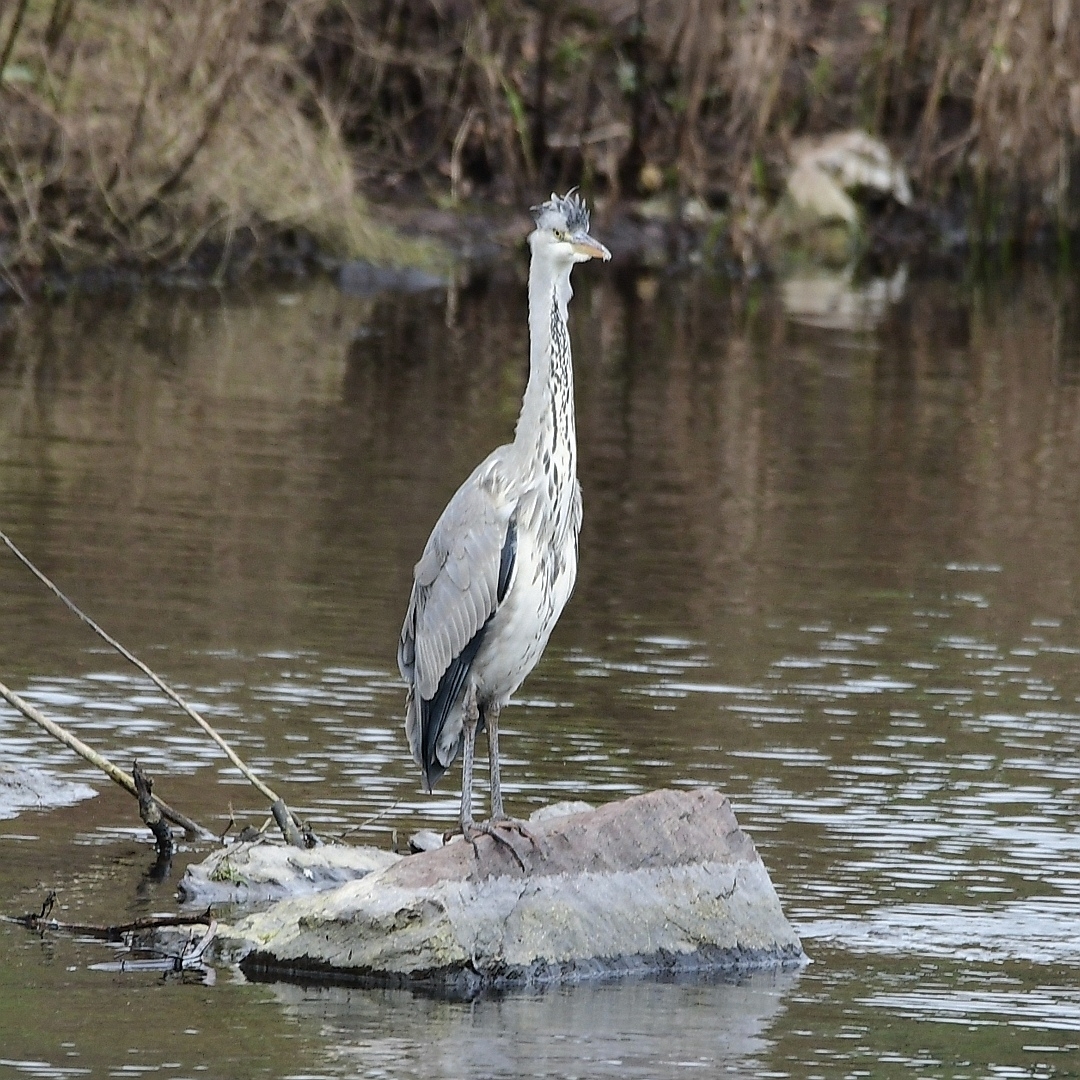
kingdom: Animalia
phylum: Chordata
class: Aves
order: Pelecaniformes
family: Ardeidae
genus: Ardea
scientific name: Ardea cinerea
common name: Grey heron
